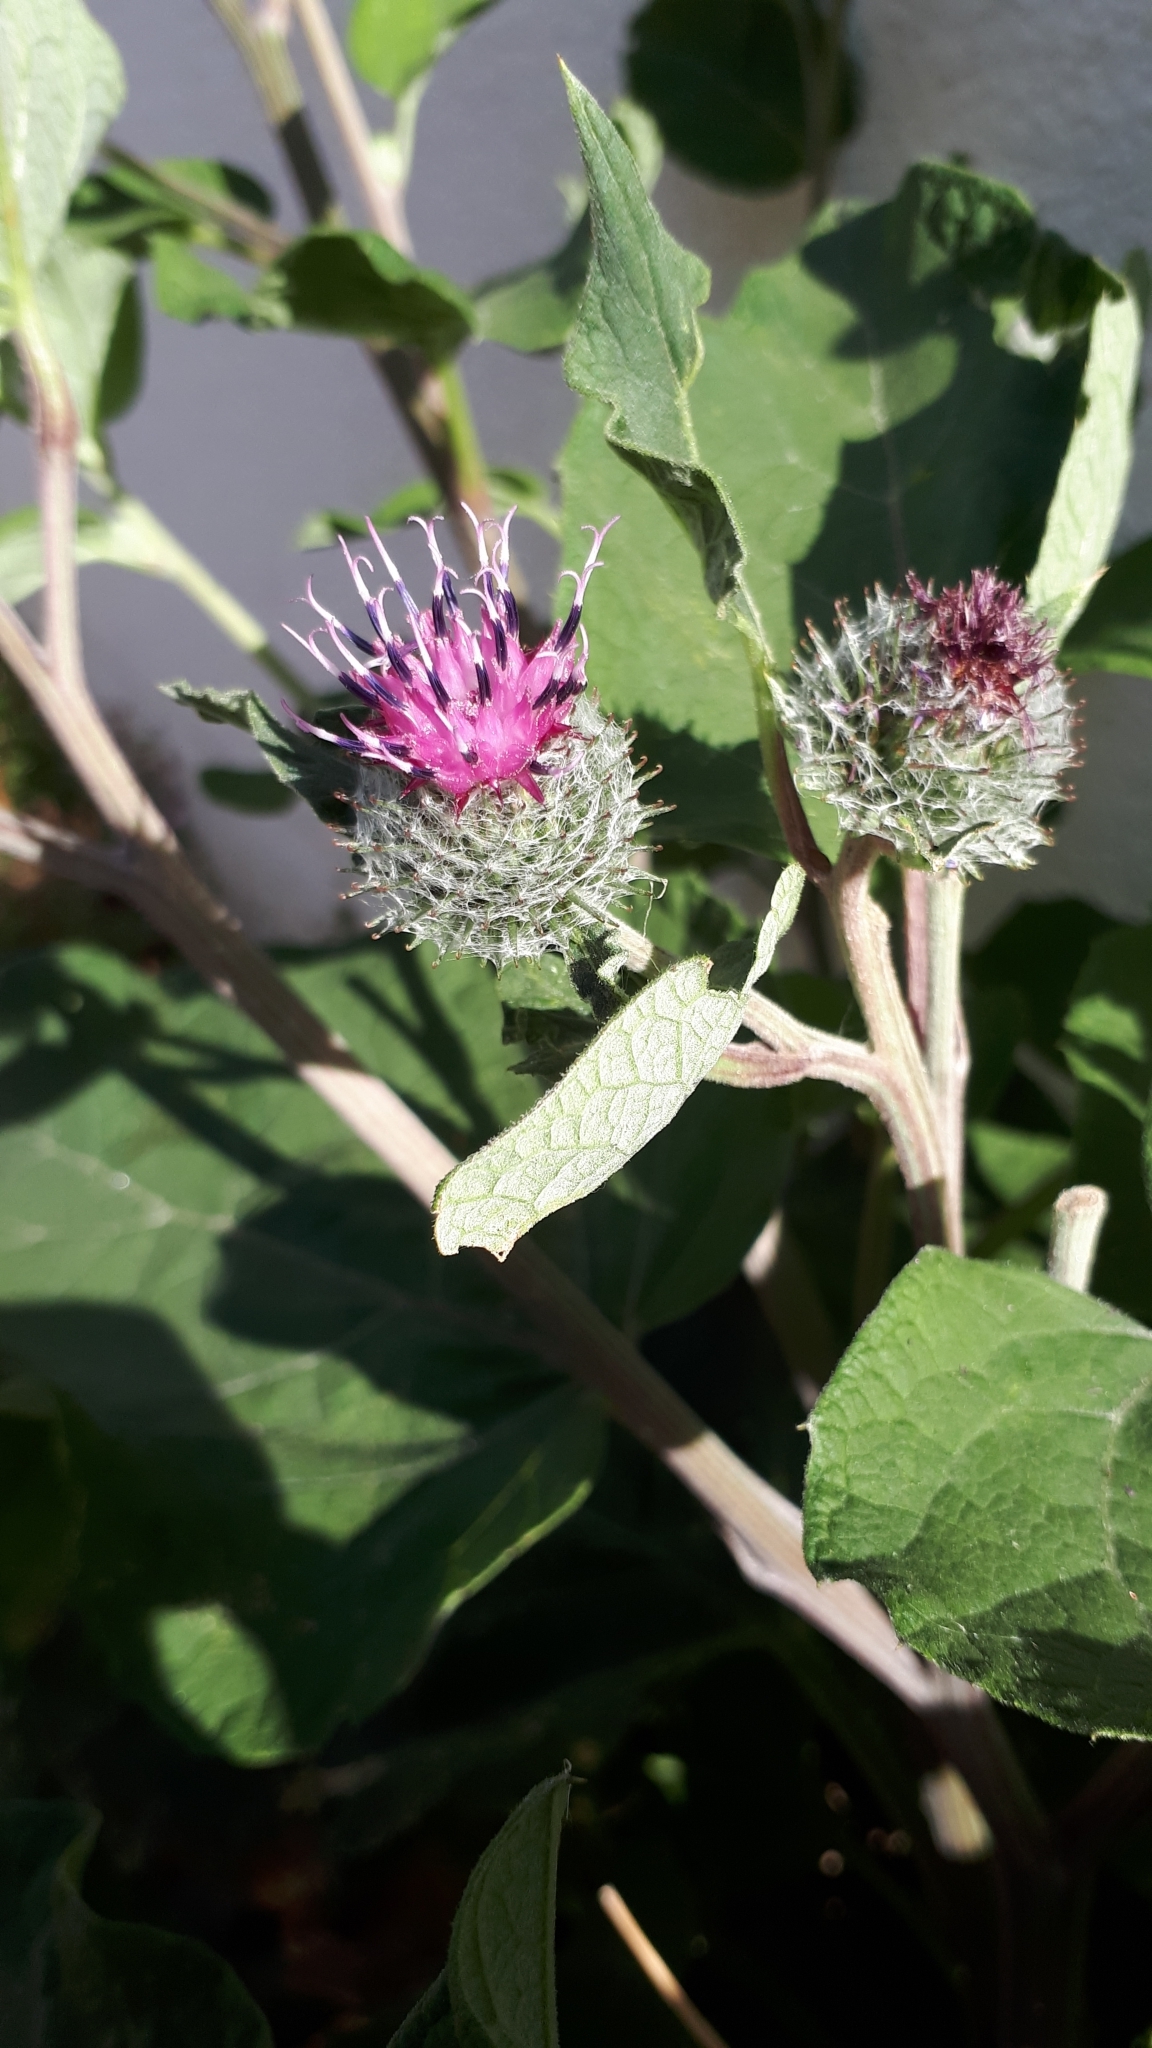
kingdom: Plantae
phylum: Tracheophyta
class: Magnoliopsida
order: Asterales
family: Asteraceae
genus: Arctium
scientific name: Arctium tomentosum
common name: Woolly burdock
